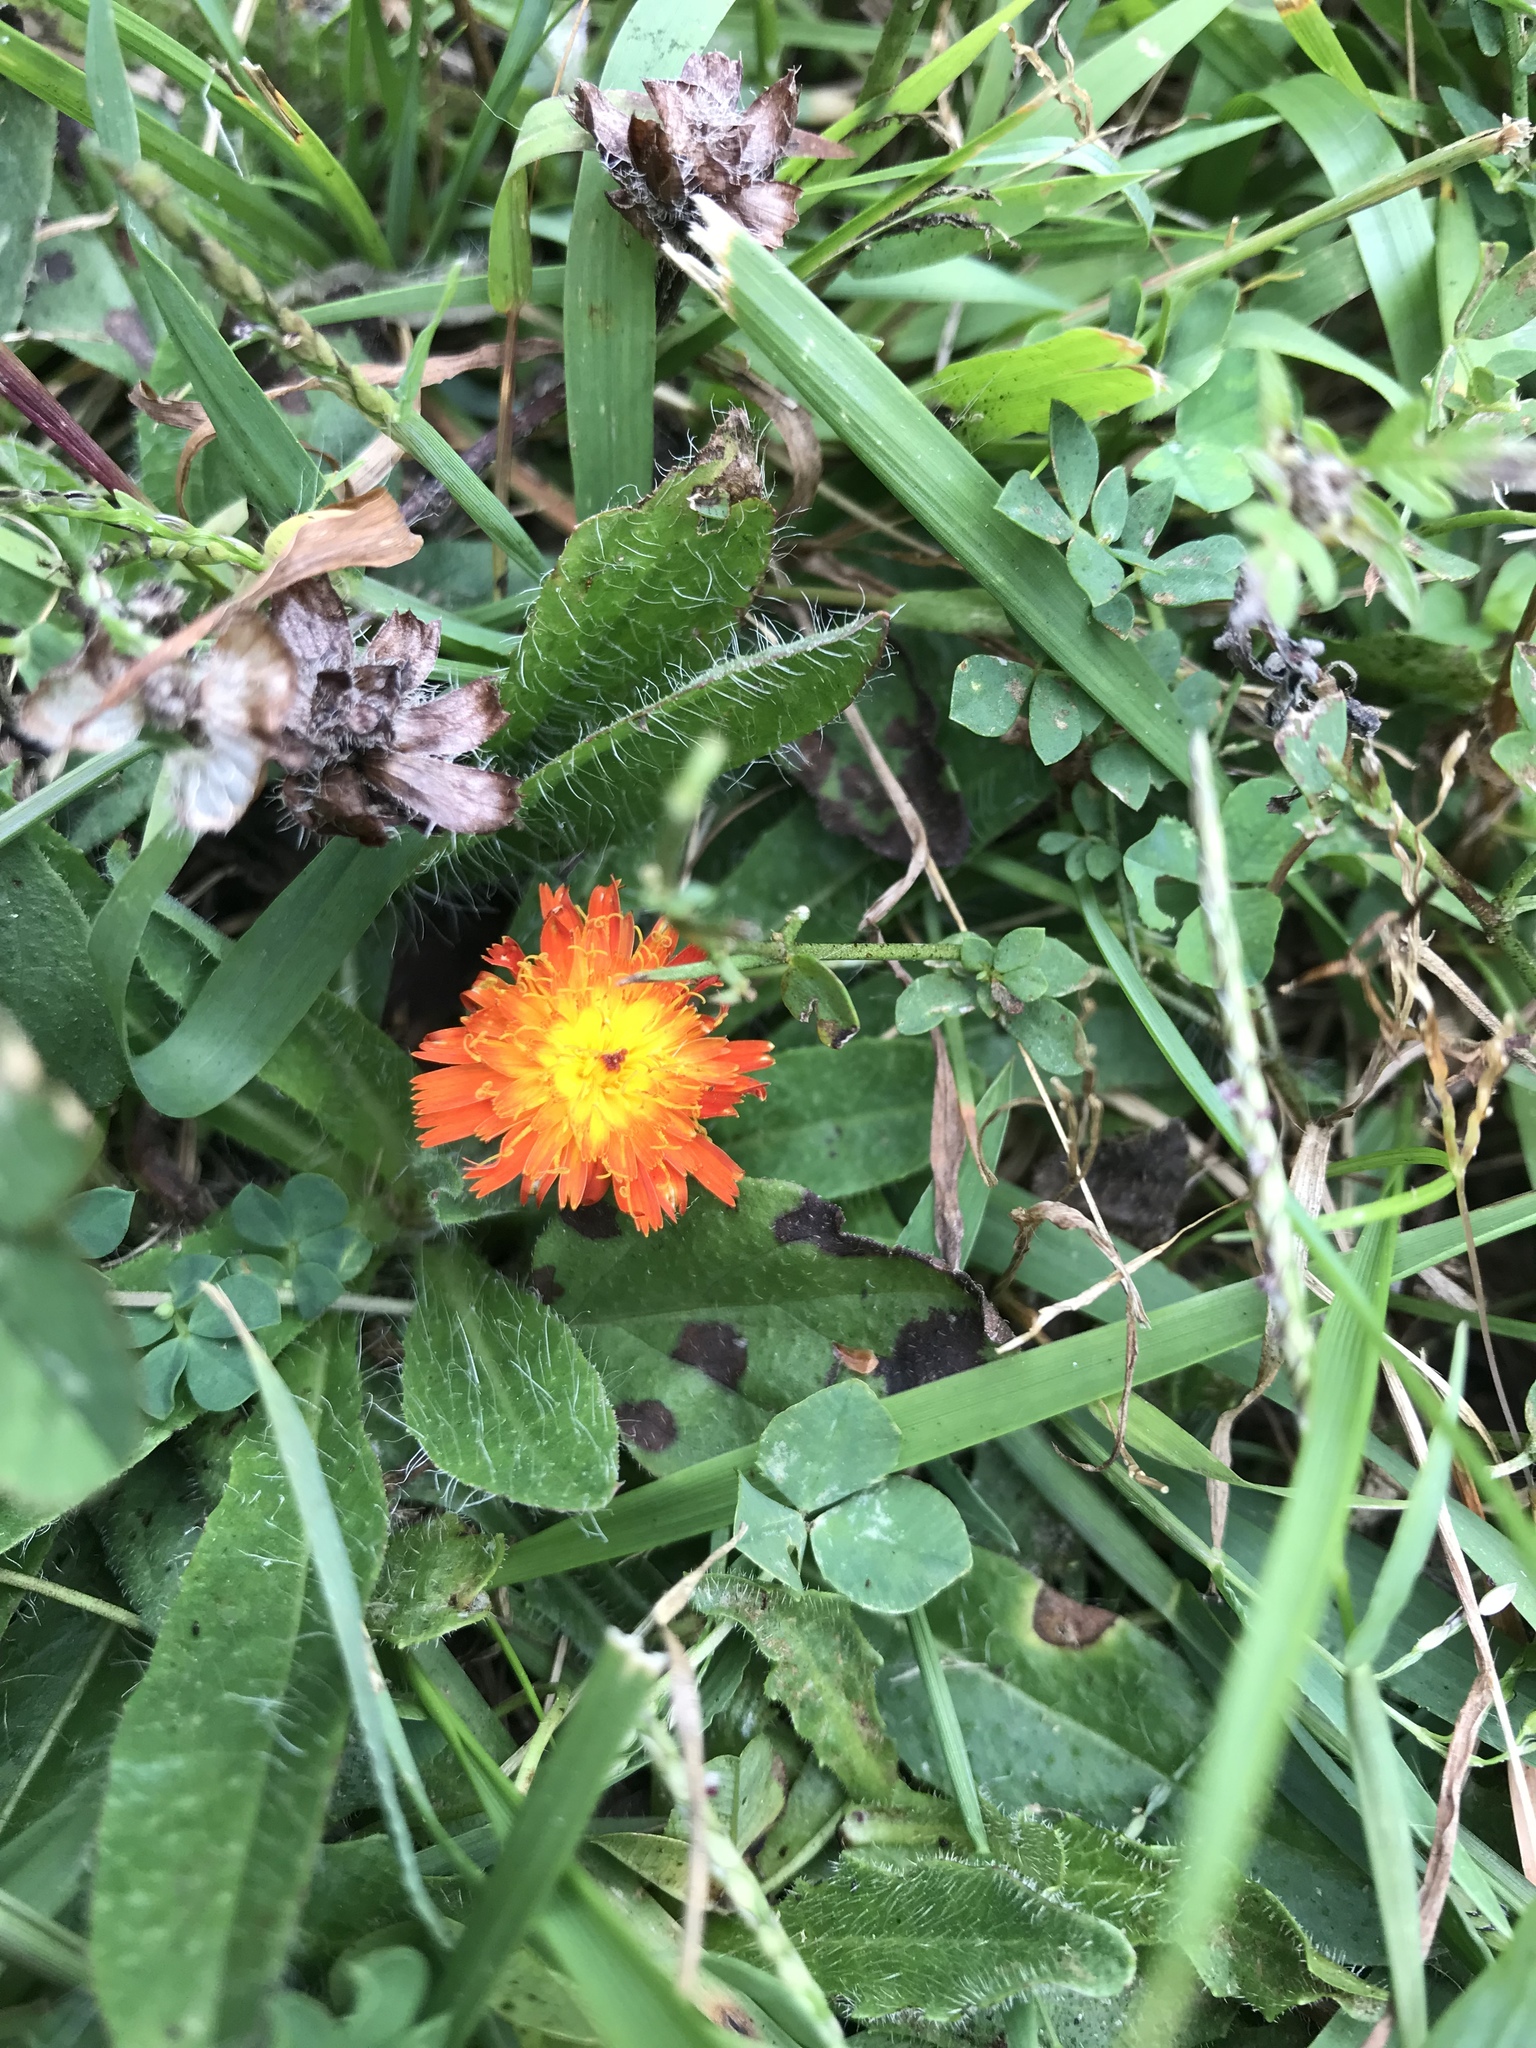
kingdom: Plantae
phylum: Tracheophyta
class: Magnoliopsida
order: Asterales
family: Asteraceae
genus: Pilosella
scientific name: Pilosella aurantiaca
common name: Fox-and-cubs
